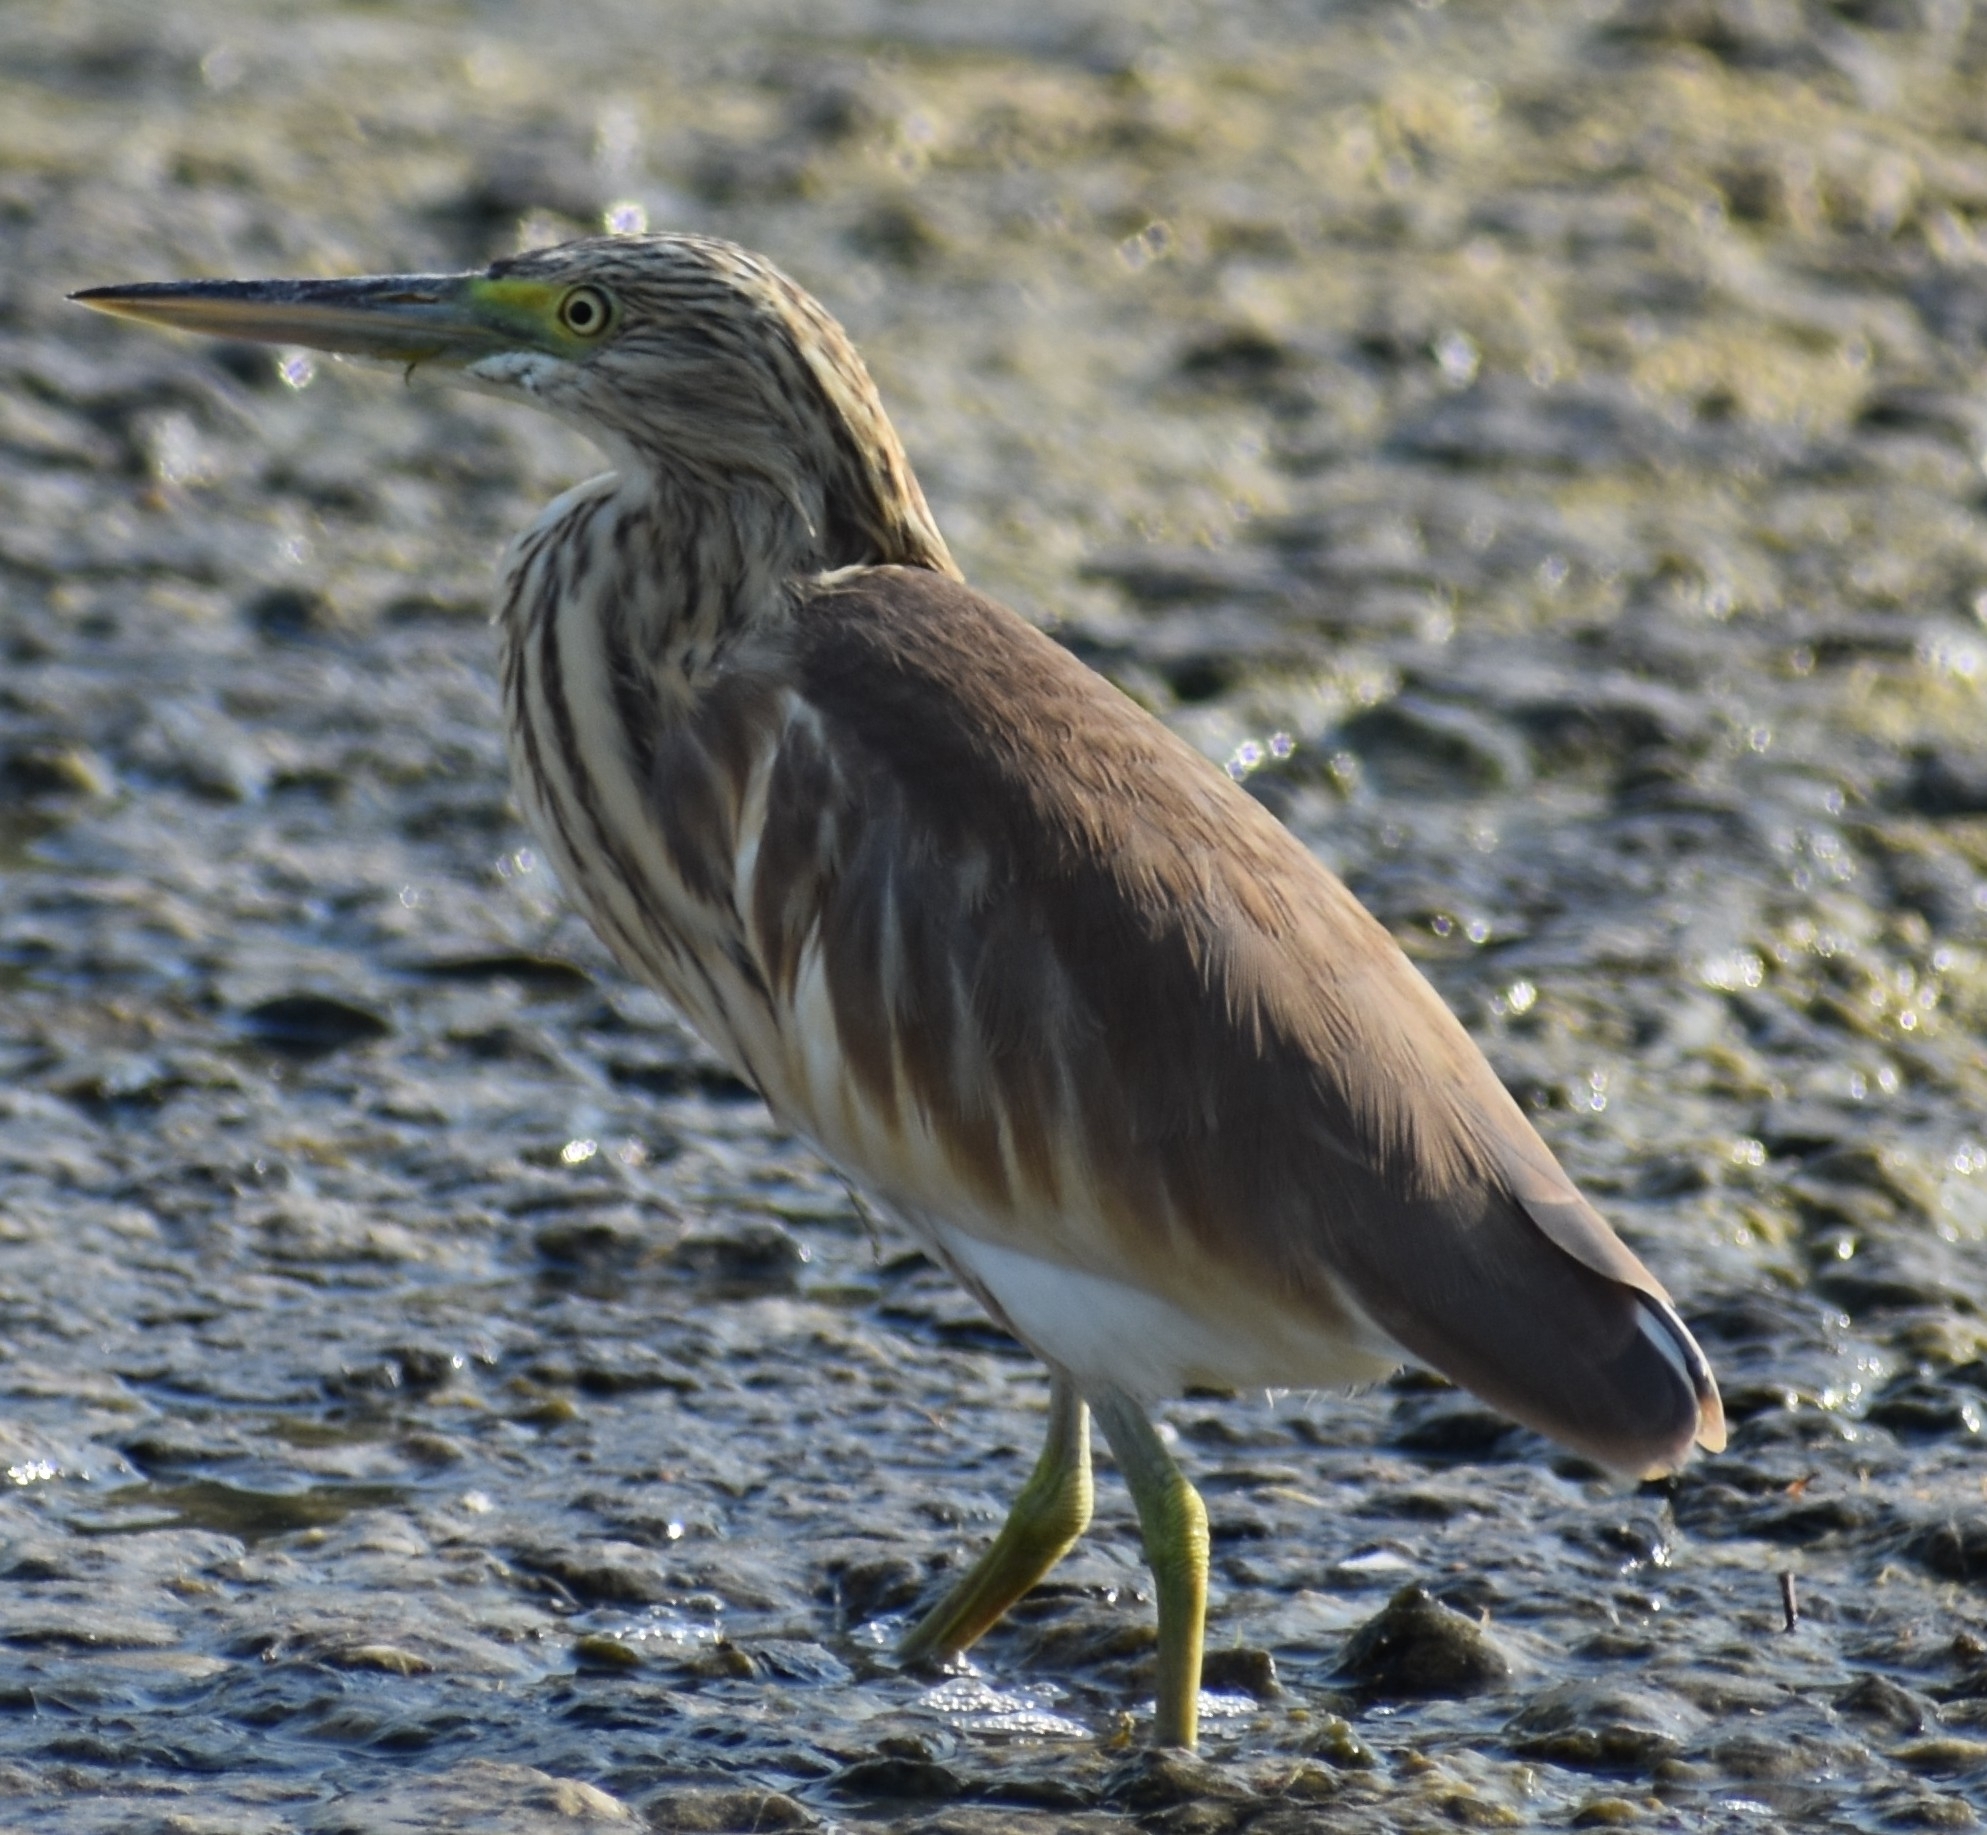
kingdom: Animalia
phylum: Chordata
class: Aves
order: Pelecaniformes
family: Ardeidae
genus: Ardeola
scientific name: Ardeola ralloides
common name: Squacco heron
